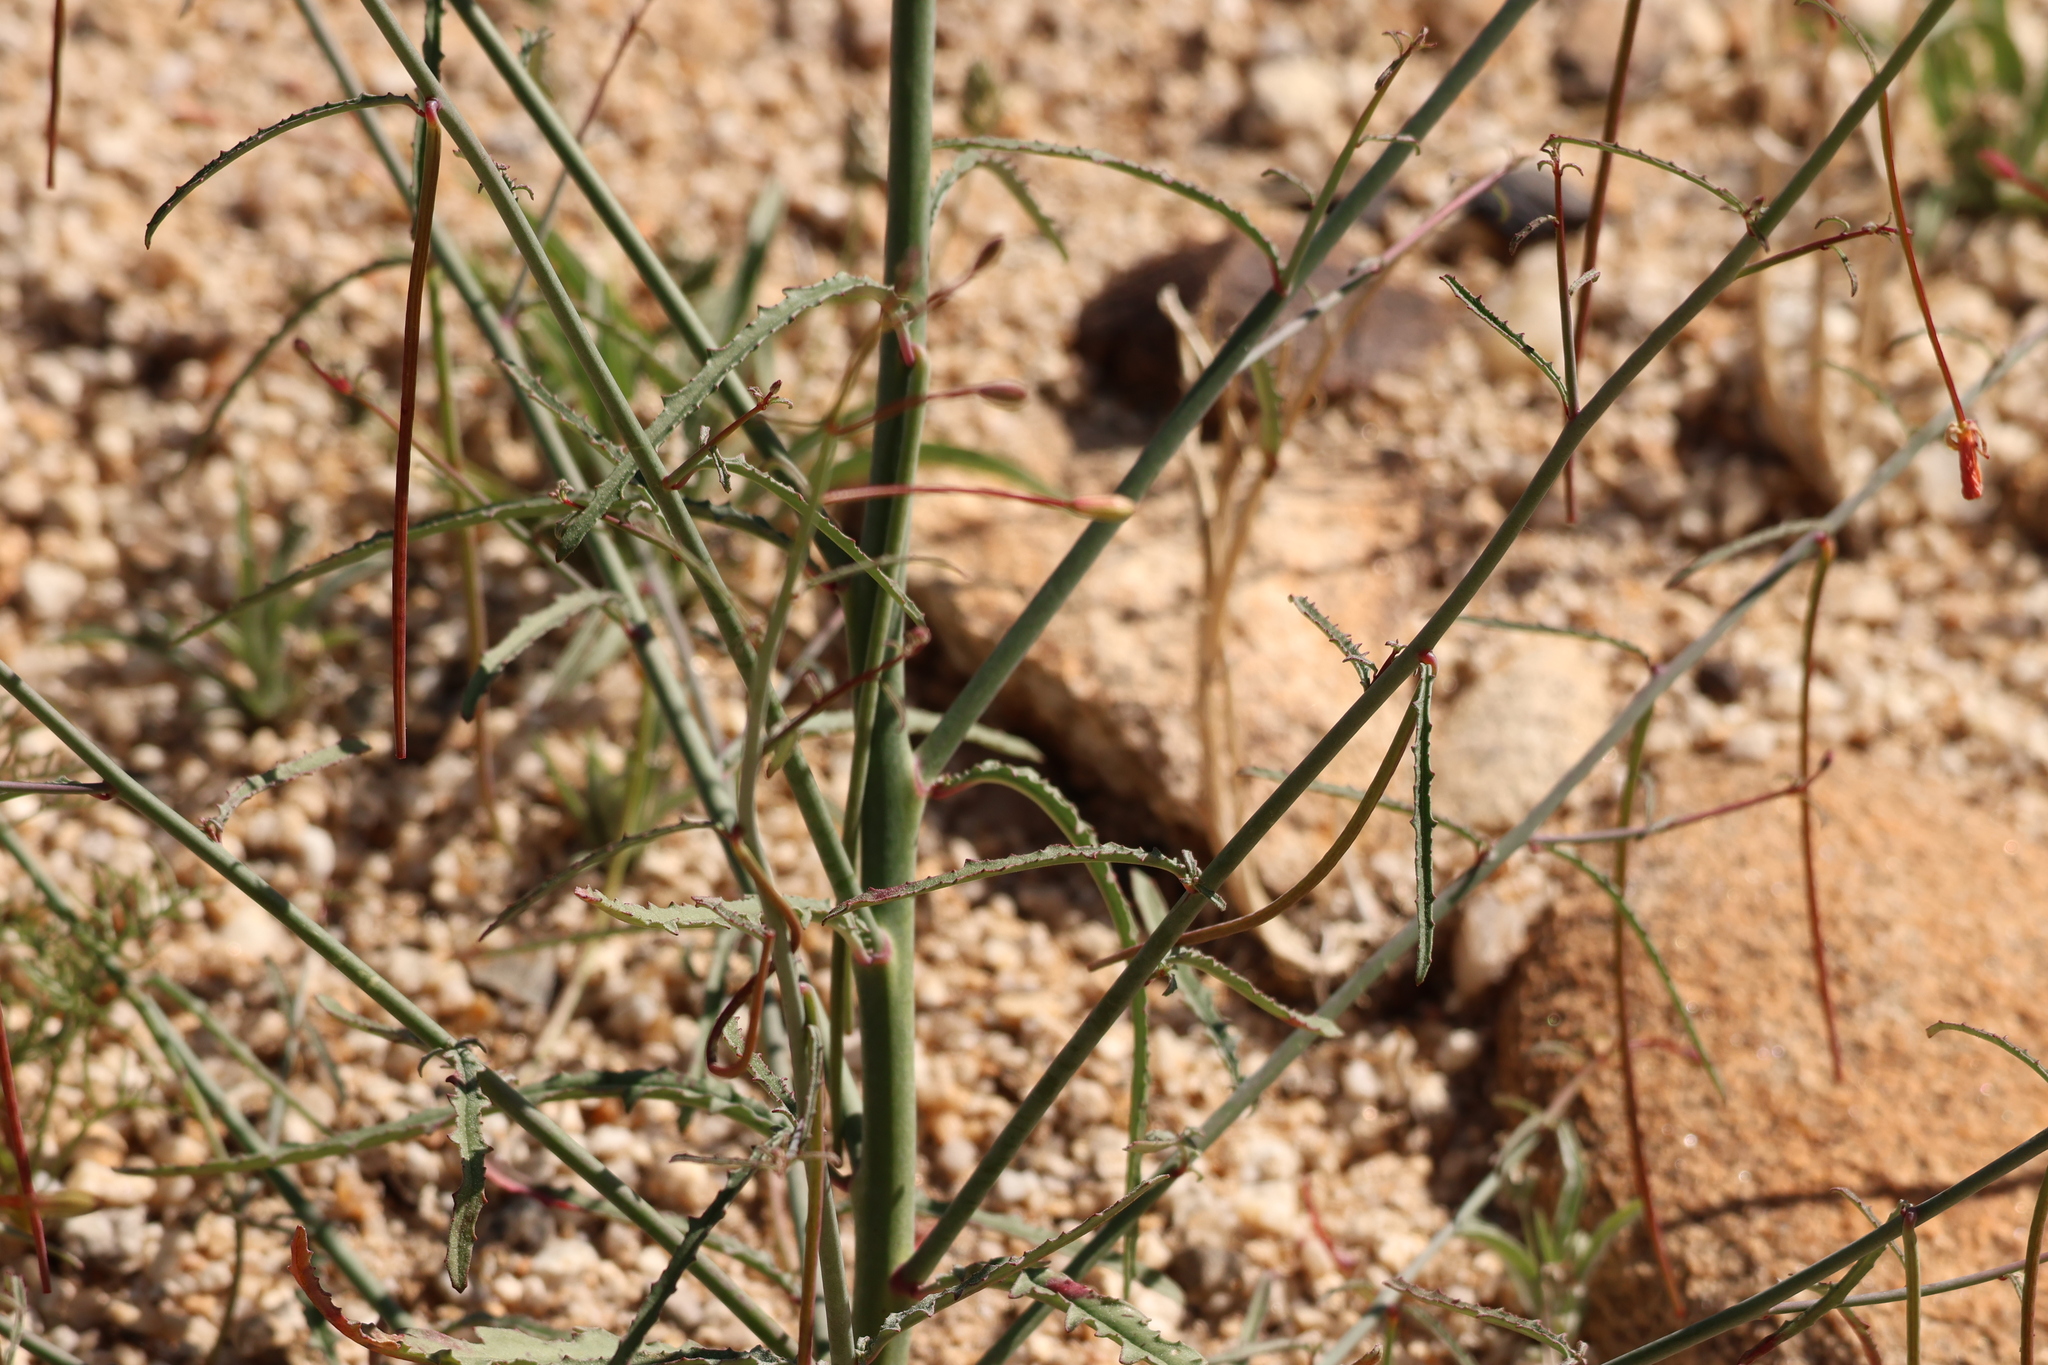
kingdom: Plantae
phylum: Tracheophyta
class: Magnoliopsida
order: Myrtales
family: Onagraceae
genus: Eulobus
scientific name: Eulobus californicus
